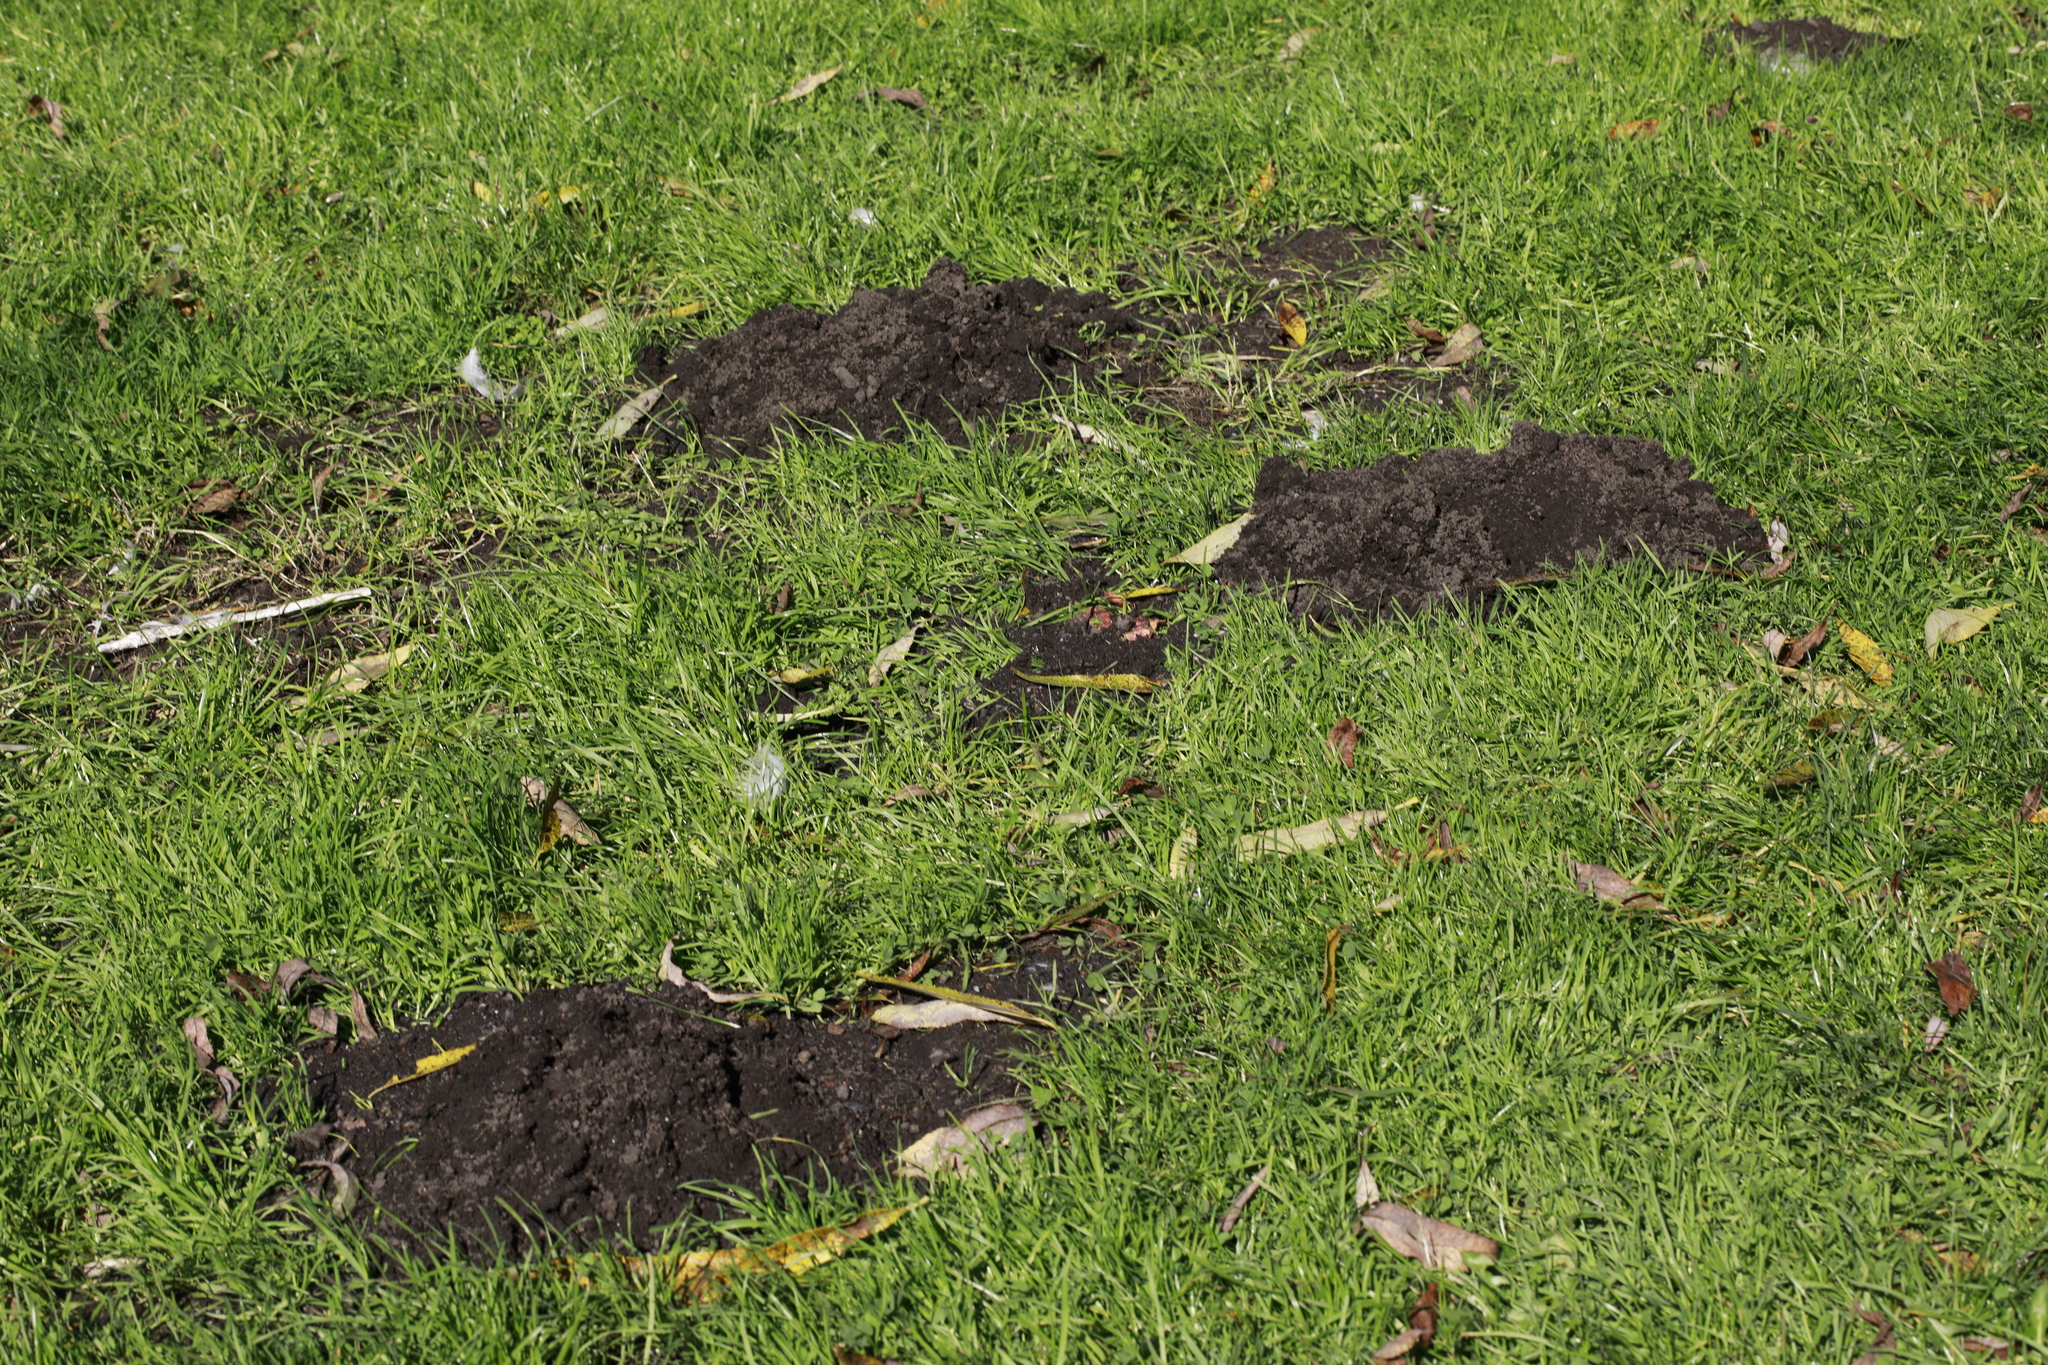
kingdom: Animalia
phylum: Chordata
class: Mammalia
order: Soricomorpha
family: Talpidae
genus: Talpa
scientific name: Talpa europaea
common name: European mole
